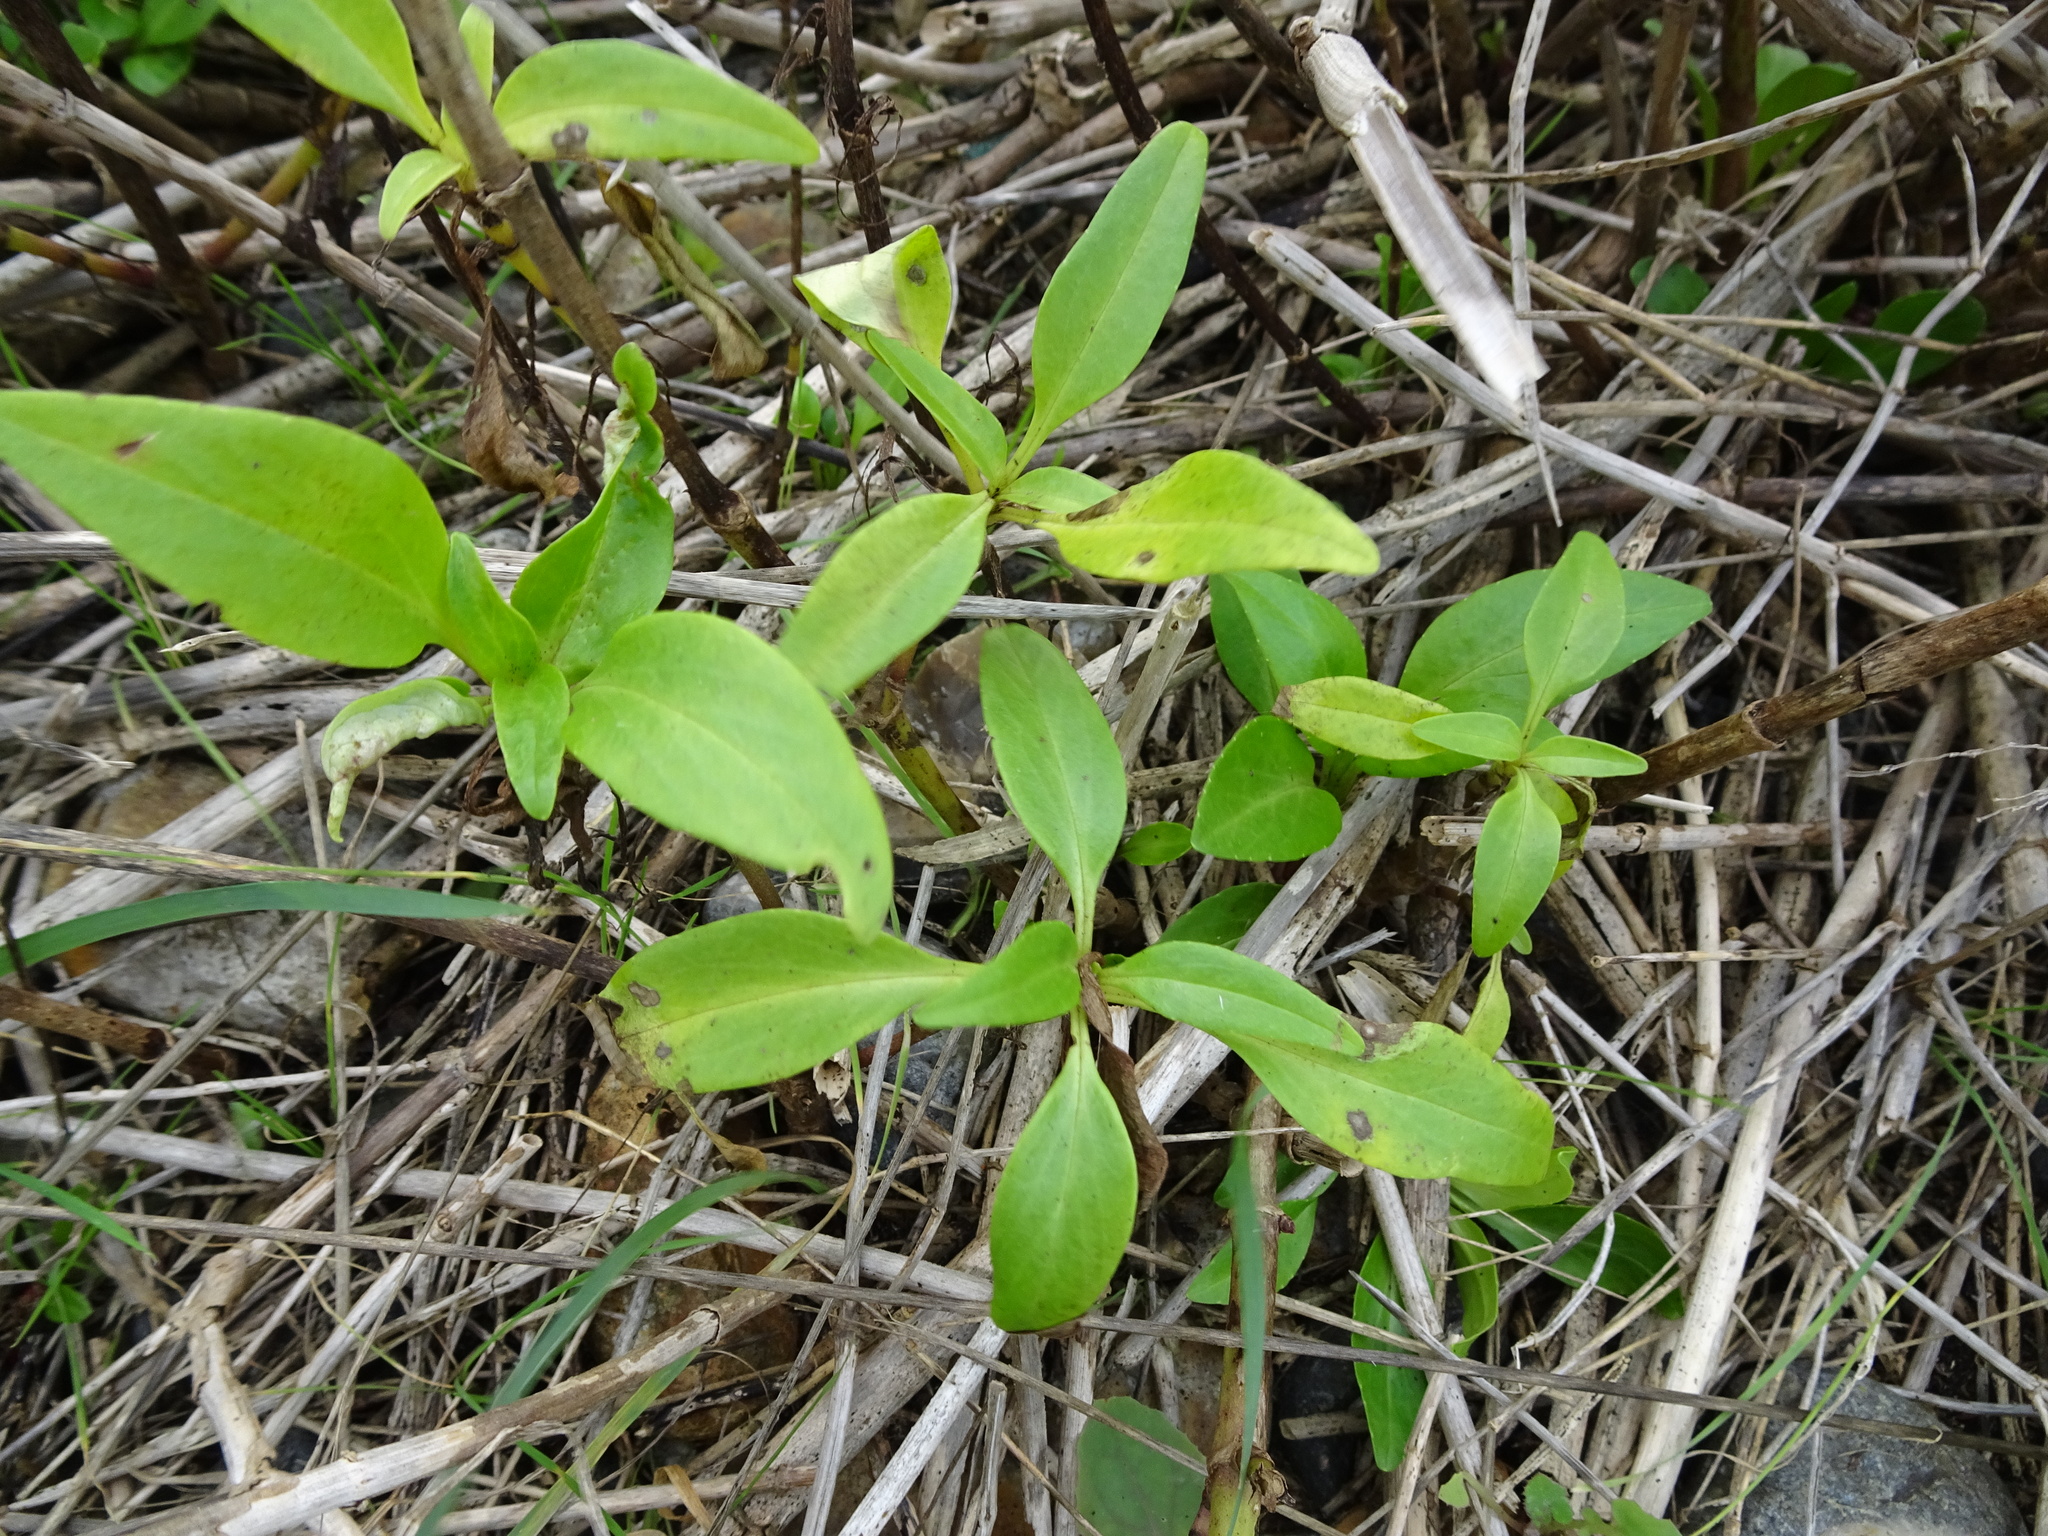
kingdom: Plantae
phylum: Tracheophyta
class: Magnoliopsida
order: Dipsacales
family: Caprifoliaceae
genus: Centranthus
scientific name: Centranthus ruber
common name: Red valerian
